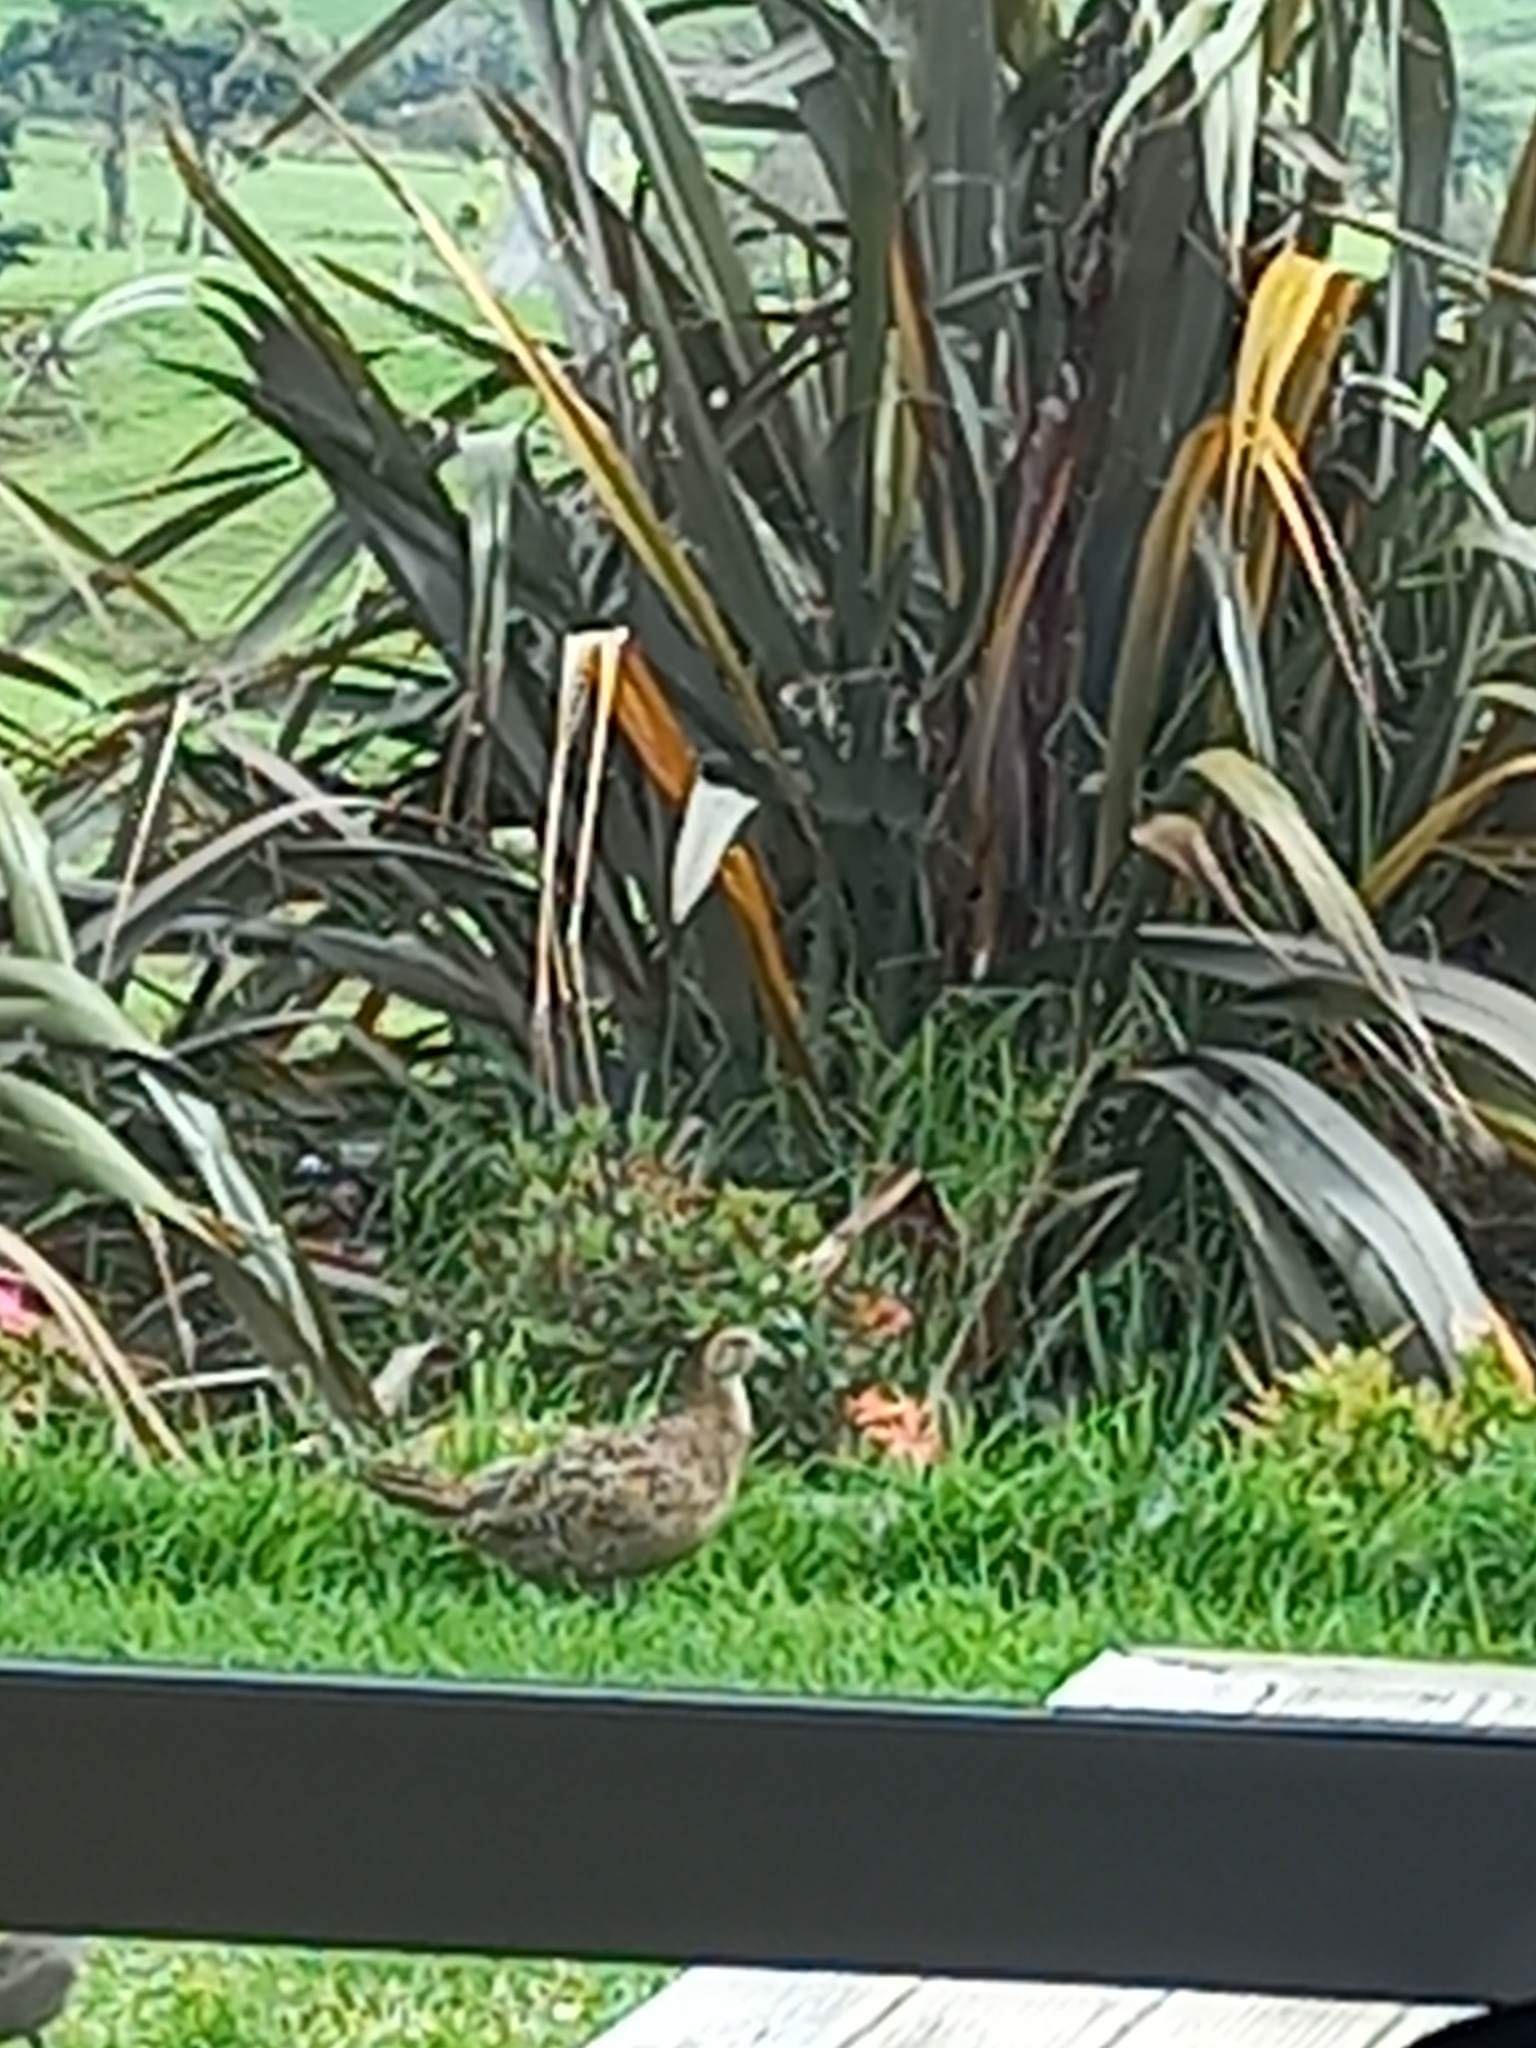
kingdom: Animalia
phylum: Chordata
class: Aves
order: Galliformes
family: Phasianidae
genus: Phasianus
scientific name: Phasianus colchicus
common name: Common pheasant
